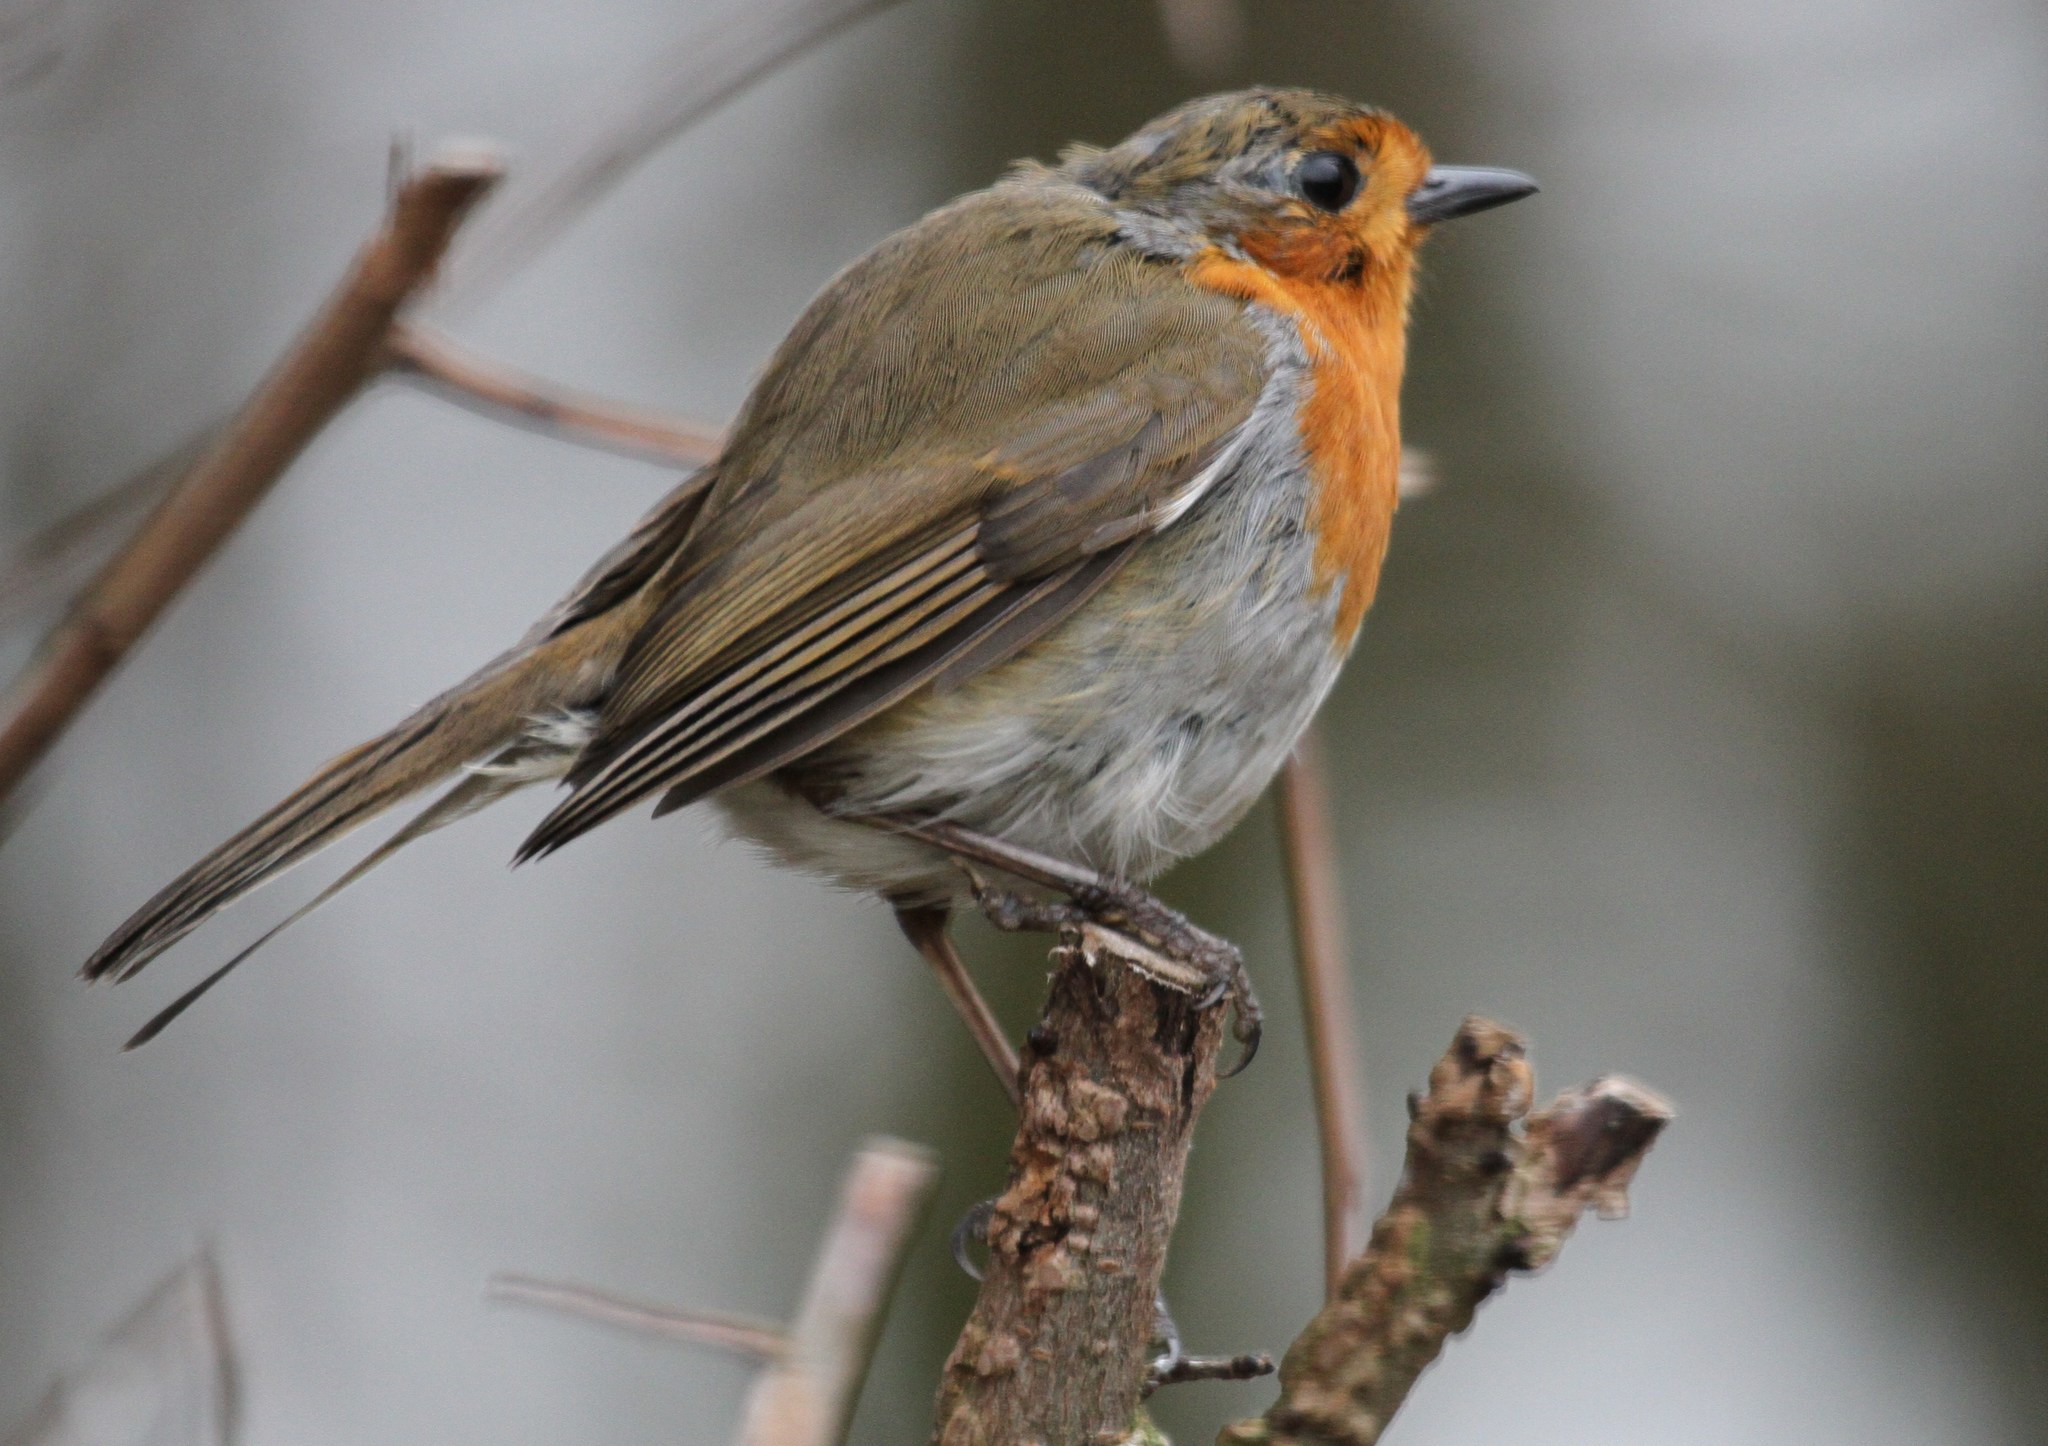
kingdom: Animalia
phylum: Chordata
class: Aves
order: Passeriformes
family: Muscicapidae
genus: Erithacus
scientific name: Erithacus rubecula
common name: European robin
